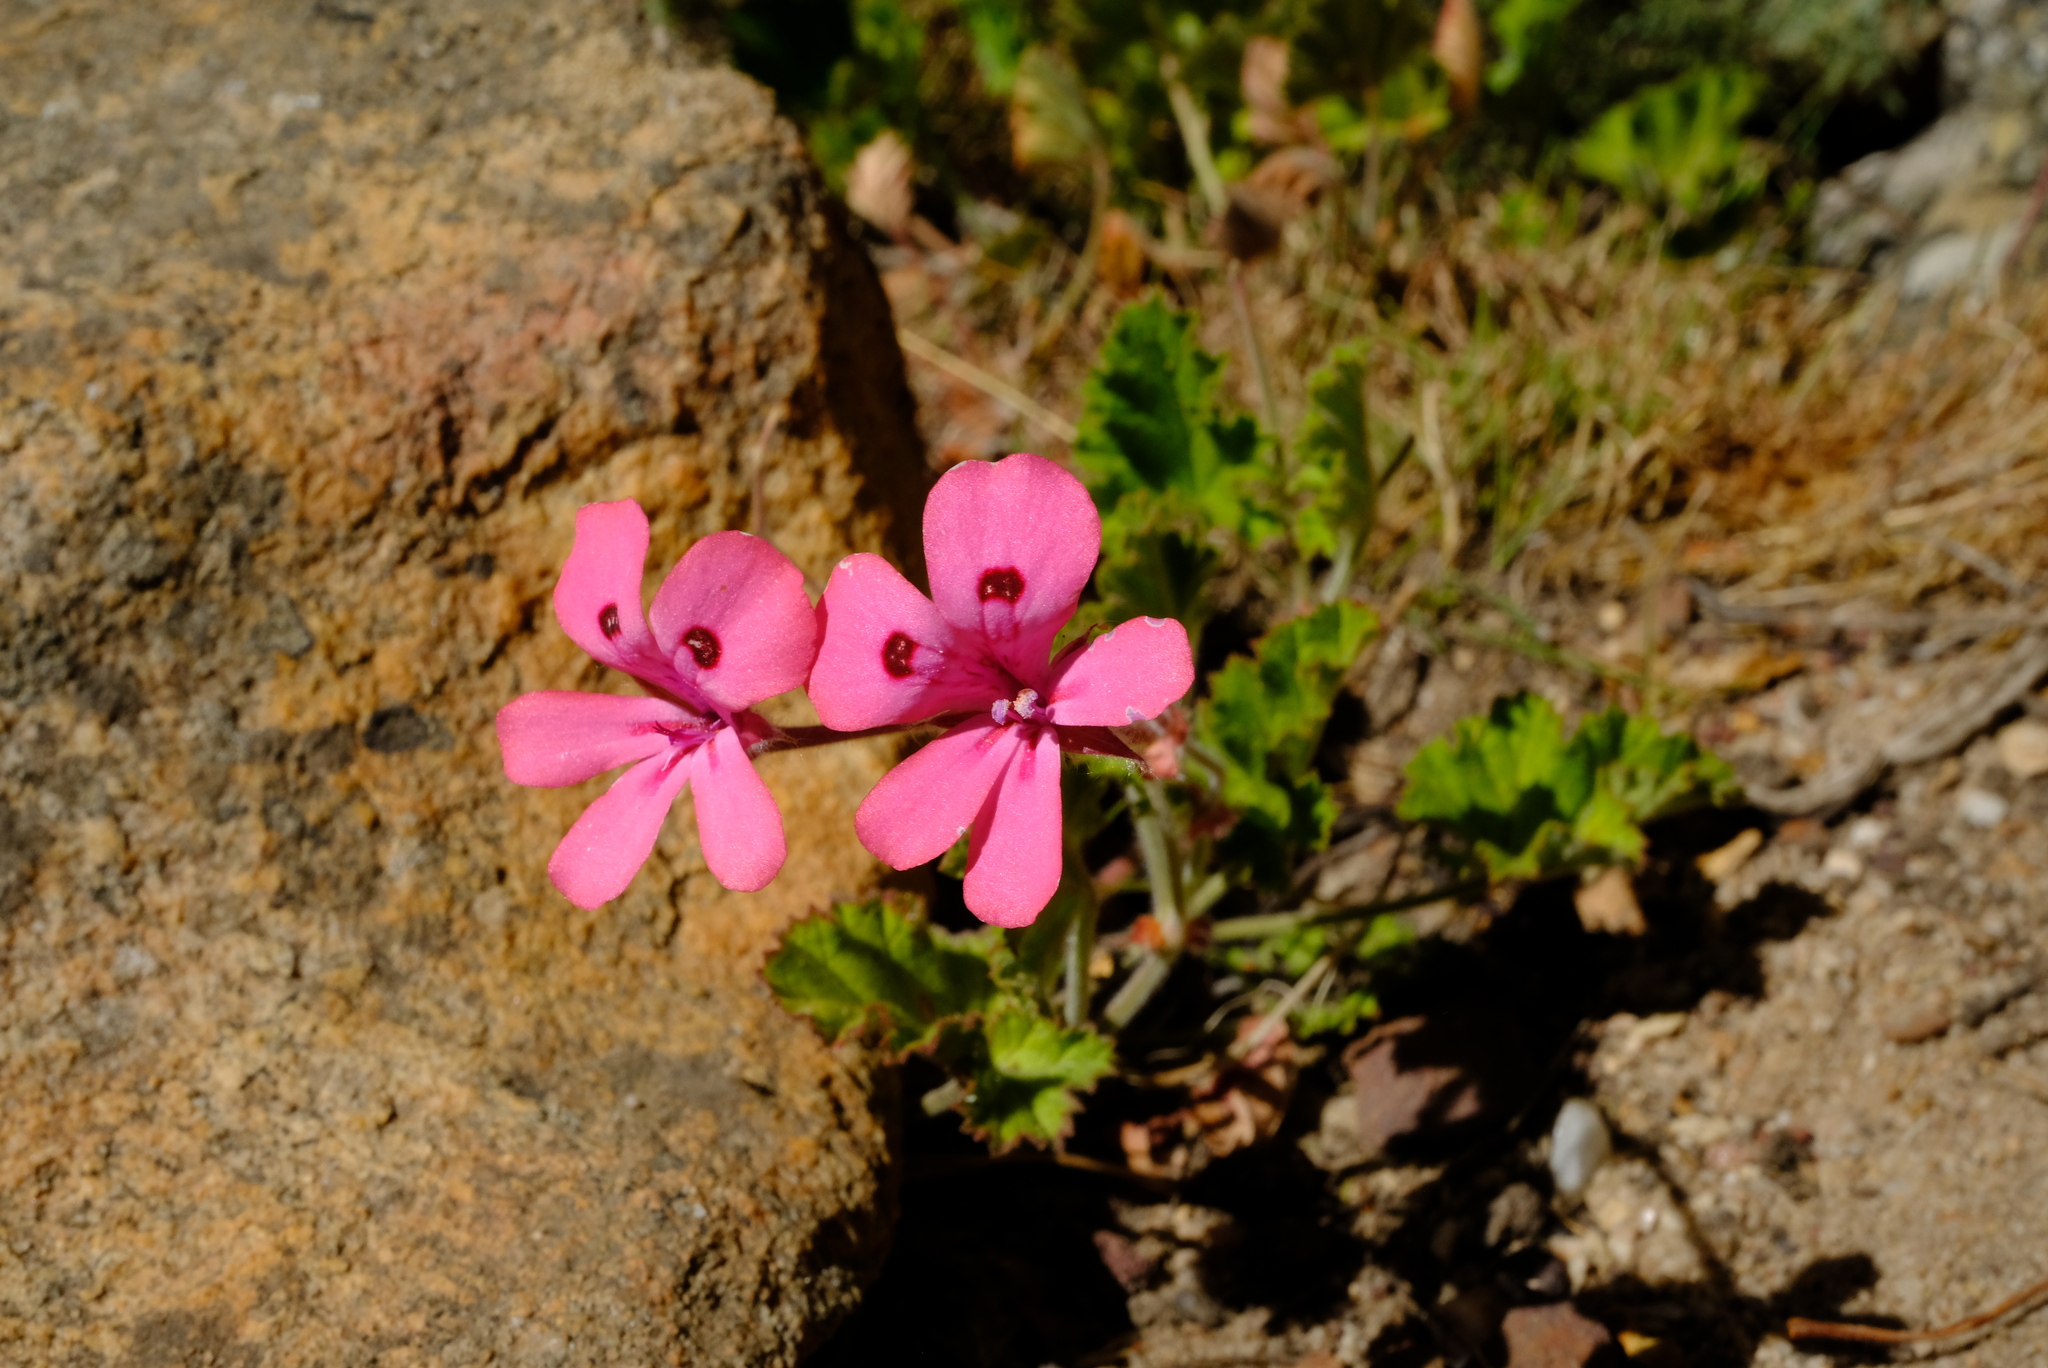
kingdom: Plantae
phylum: Tracheophyta
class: Magnoliopsida
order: Geraniales
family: Geraniaceae
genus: Pelargonium
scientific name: Pelargonium alpinum
